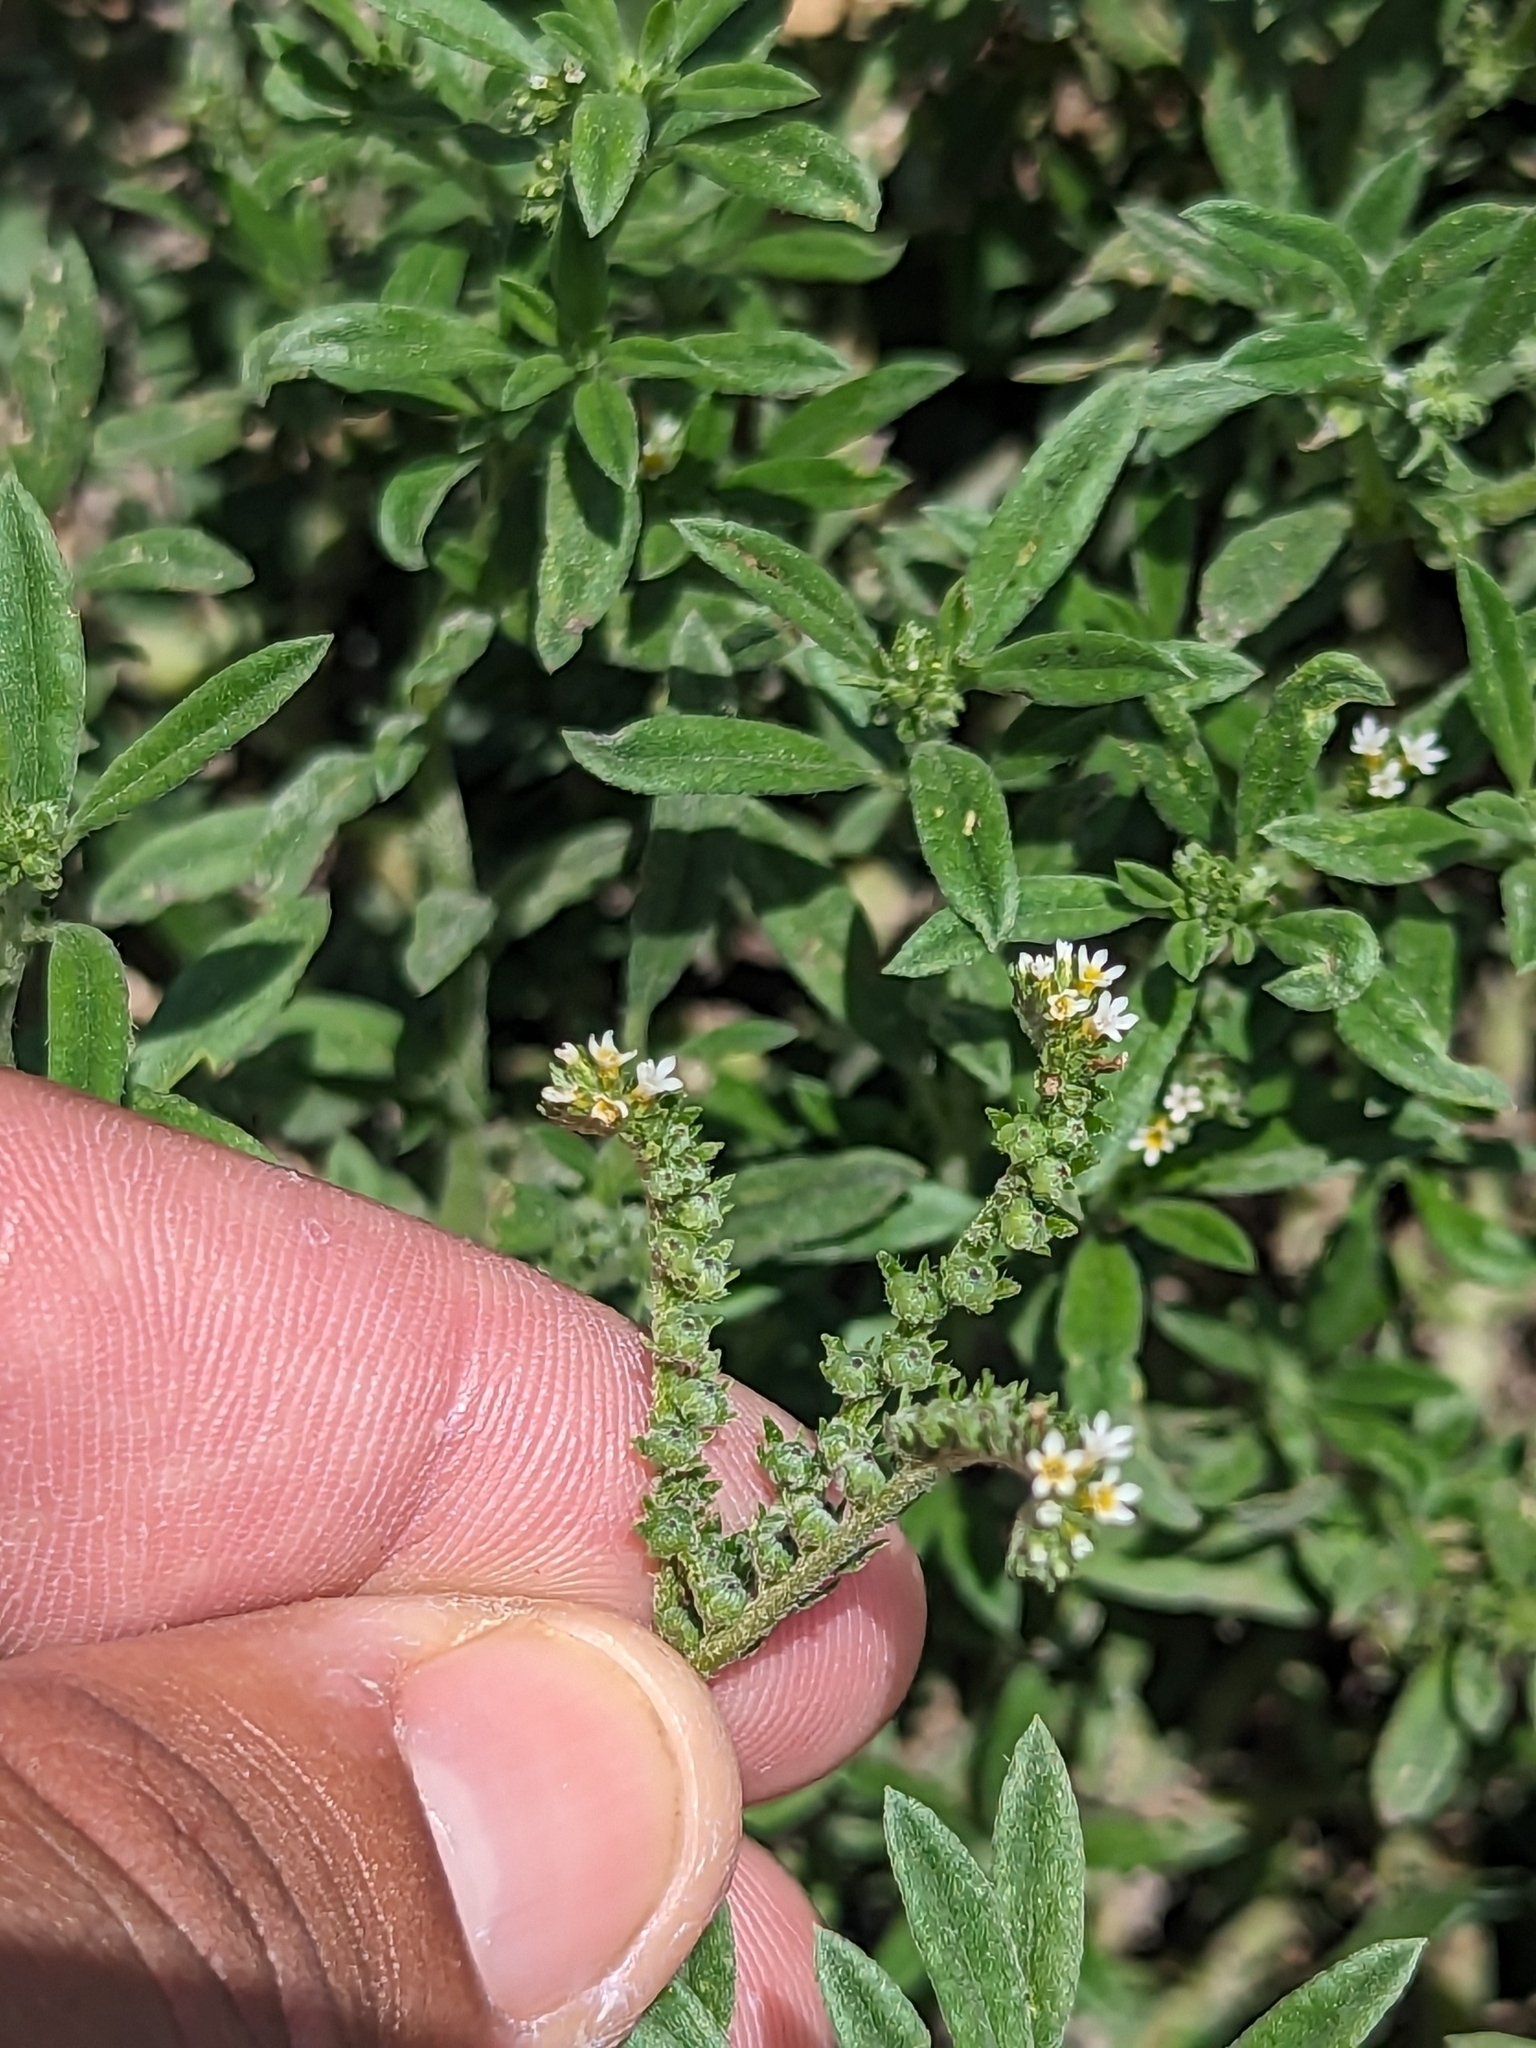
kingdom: Plantae
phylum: Tracheophyta
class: Magnoliopsida
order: Boraginales
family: Heliotropiaceae
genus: Euploca
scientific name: Euploca procumbens
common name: Fourspike heliotrope
